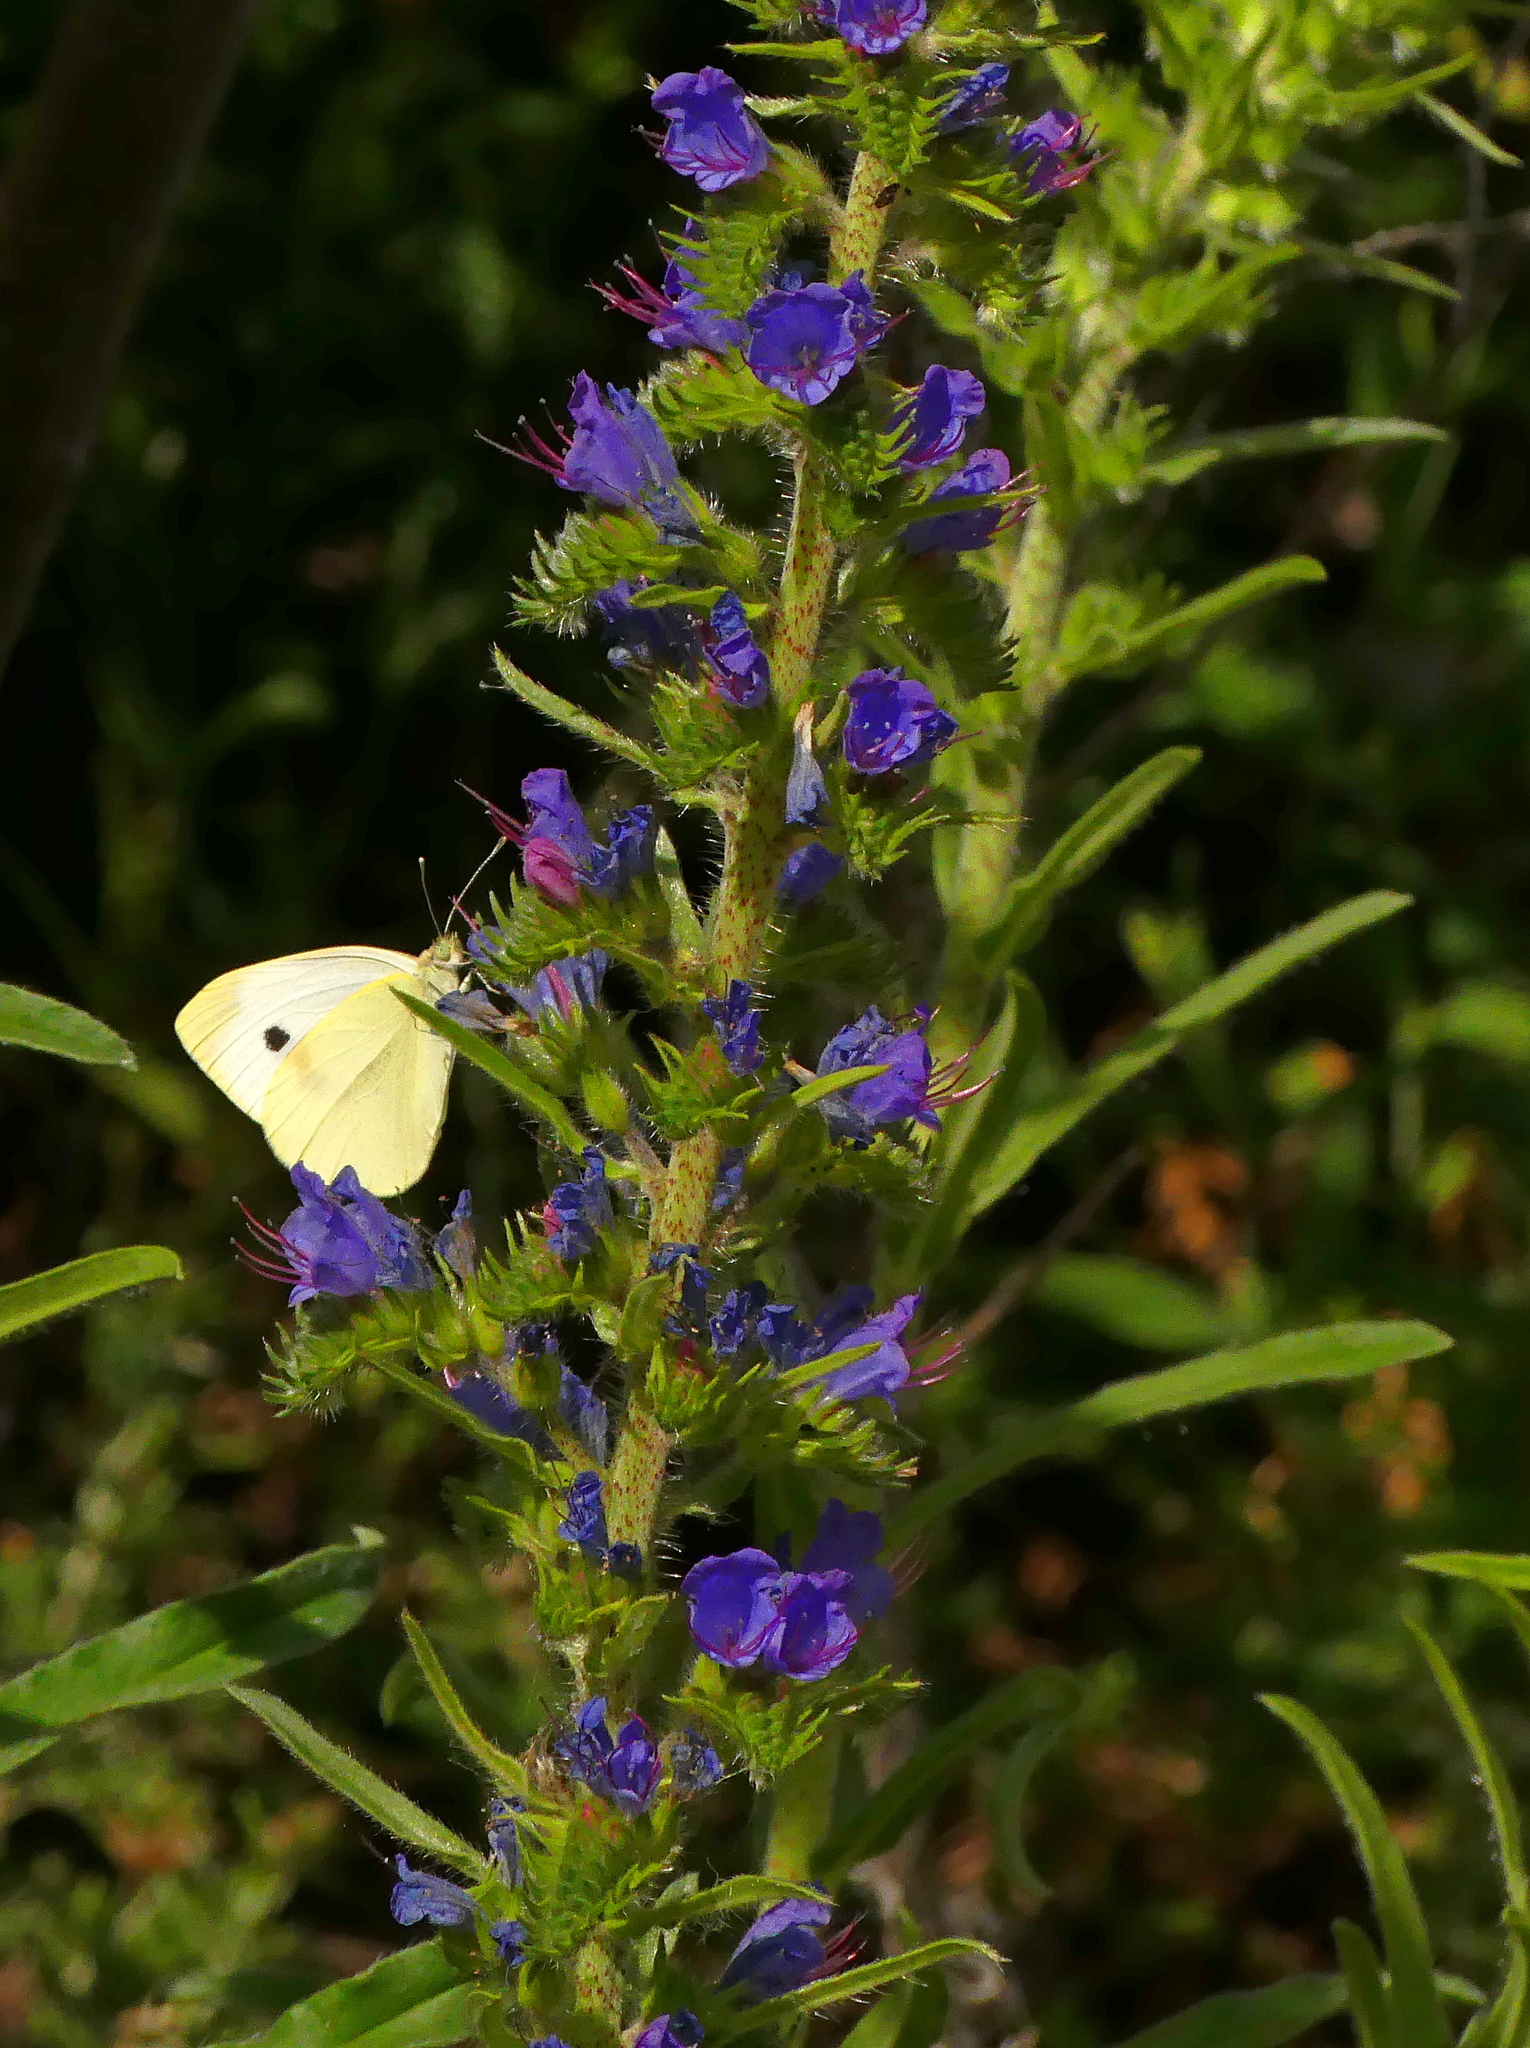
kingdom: Animalia
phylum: Arthropoda
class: Insecta
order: Lepidoptera
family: Pieridae
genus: Pieris
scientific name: Pieris rapae
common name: Small white
